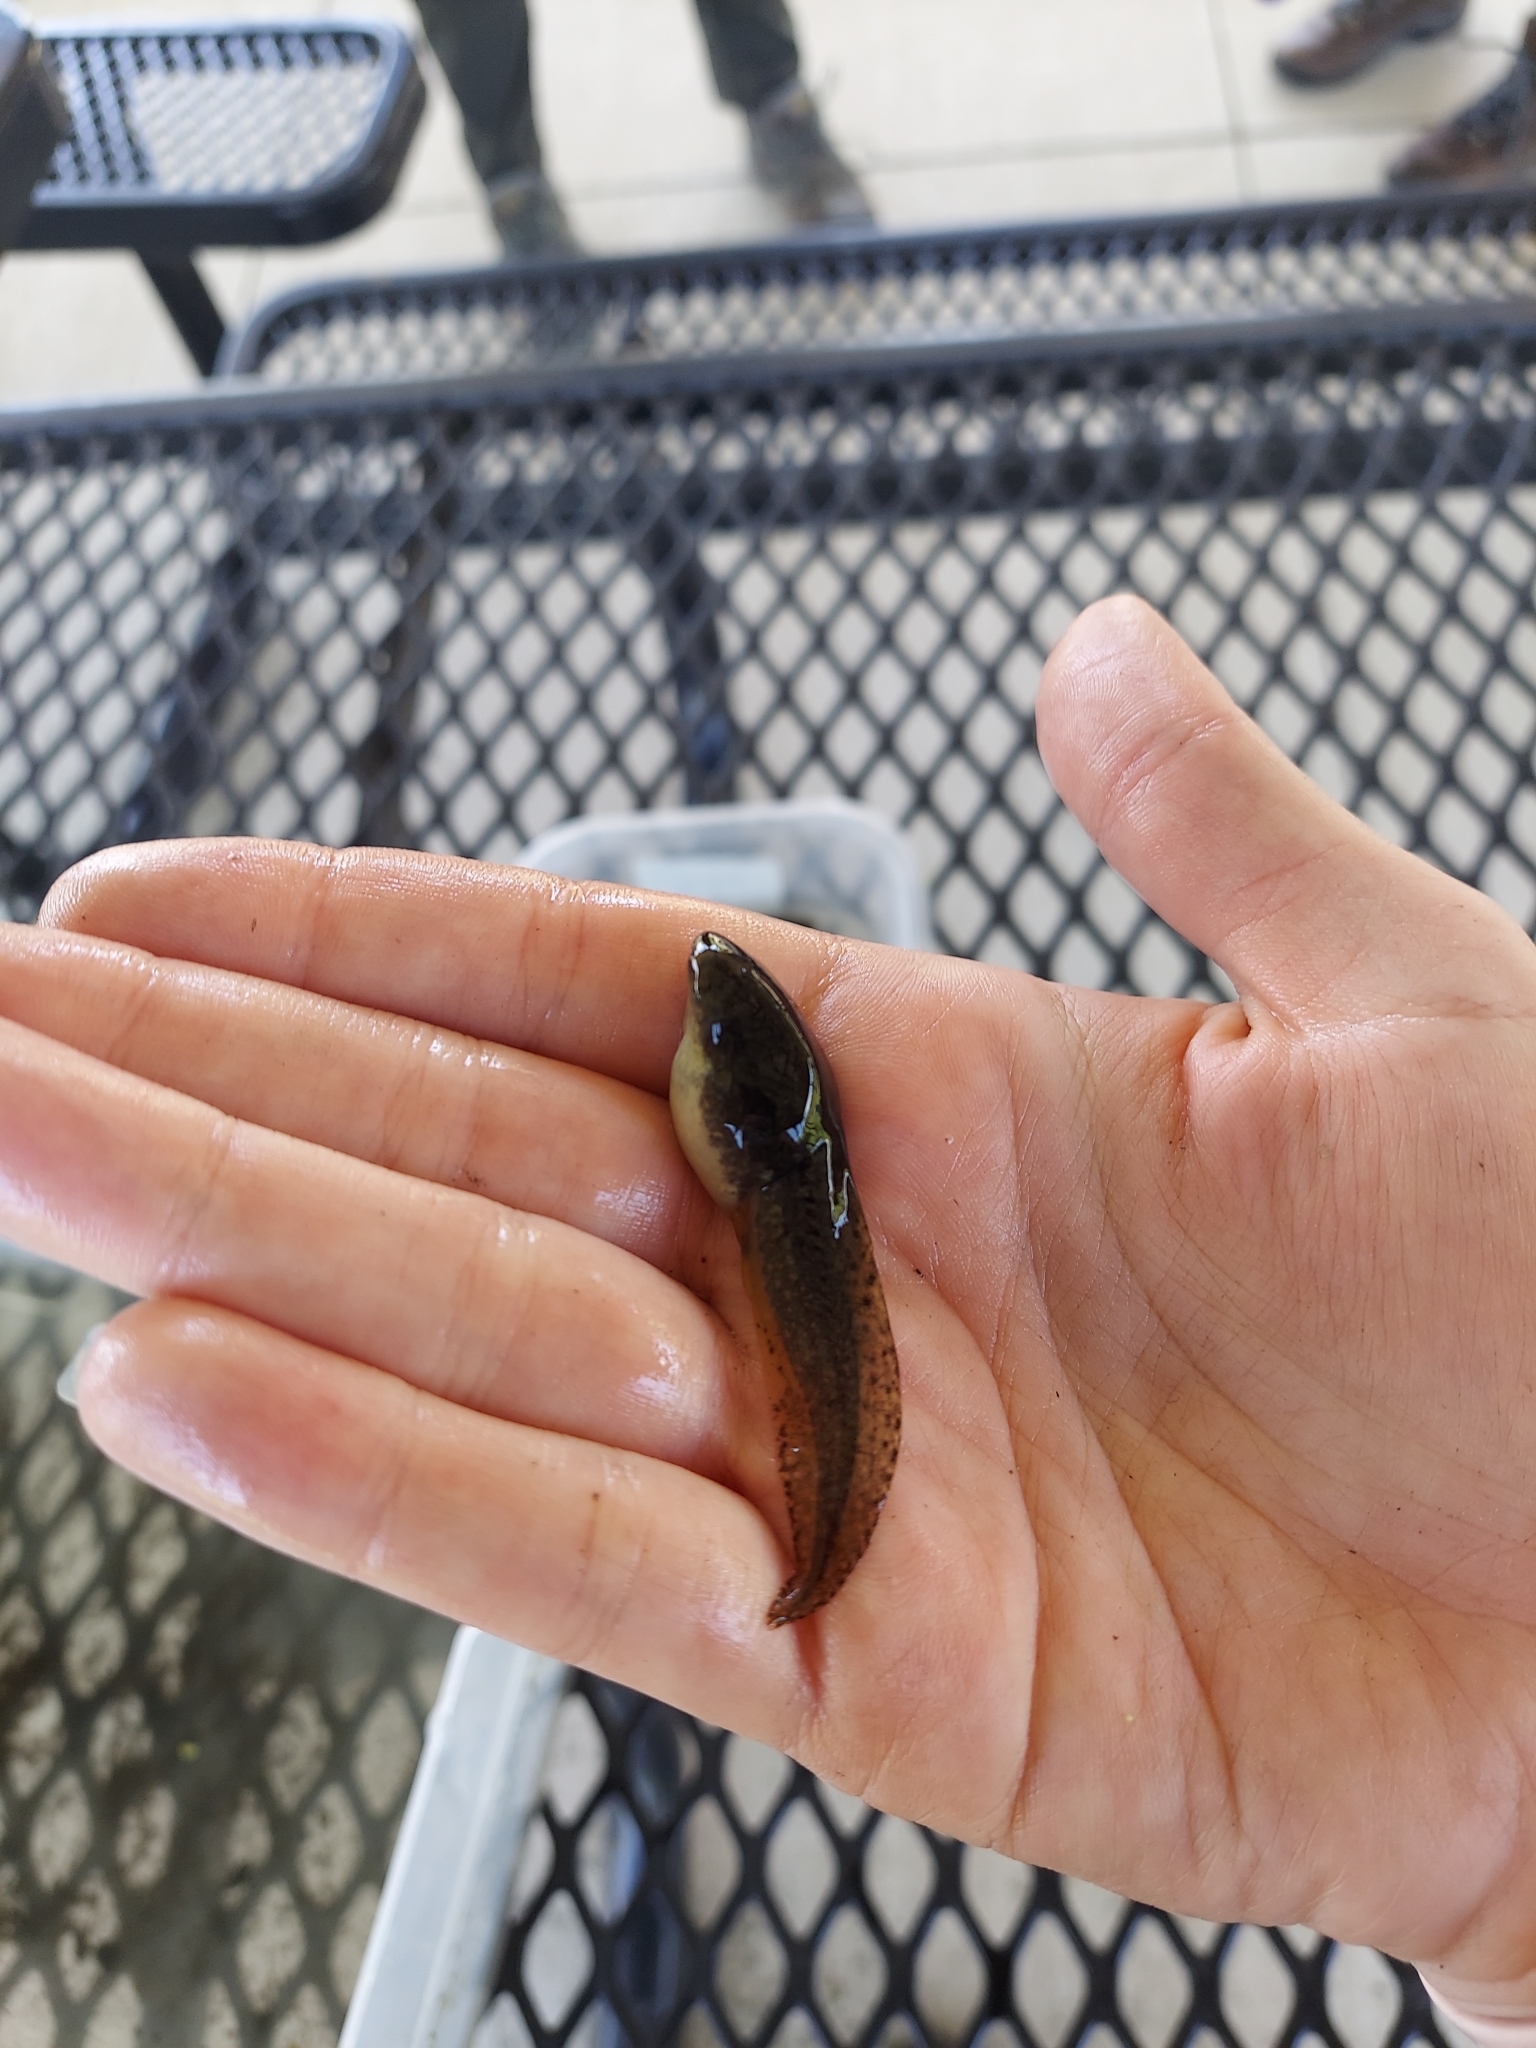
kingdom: Animalia
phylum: Chordata
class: Amphibia
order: Anura
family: Ranidae
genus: Lithobates
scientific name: Lithobates clamitans
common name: Green frog
